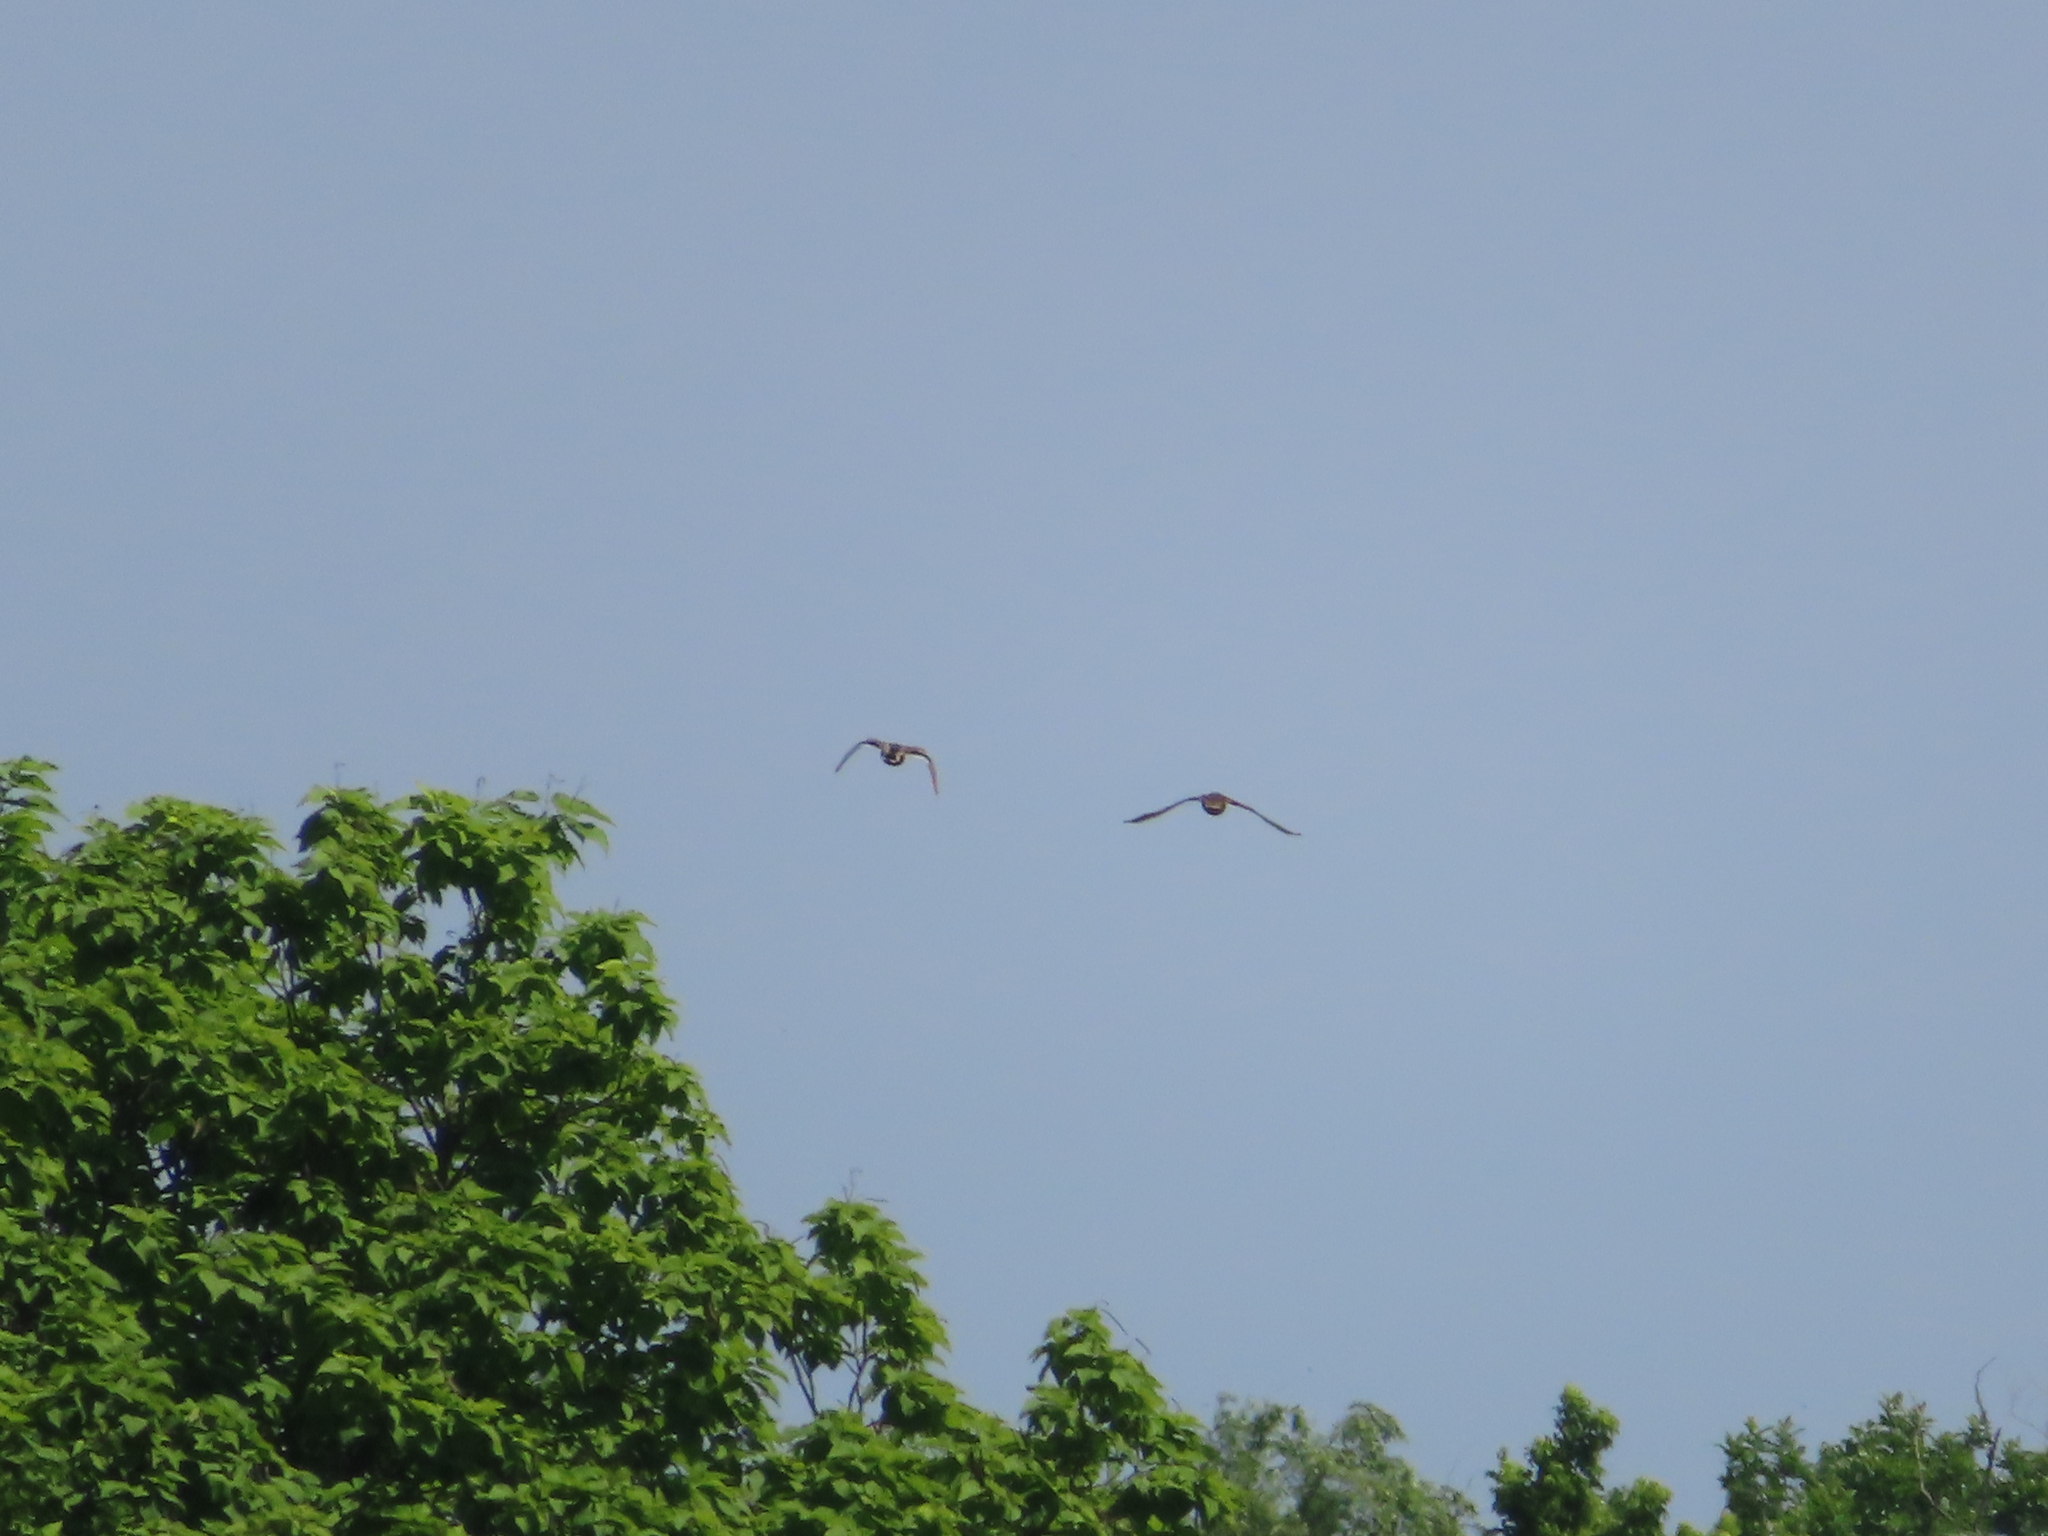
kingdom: Animalia
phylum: Chordata
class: Aves
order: Anseriformes
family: Anatidae
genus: Anas
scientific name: Anas platyrhynchos
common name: Mallard
